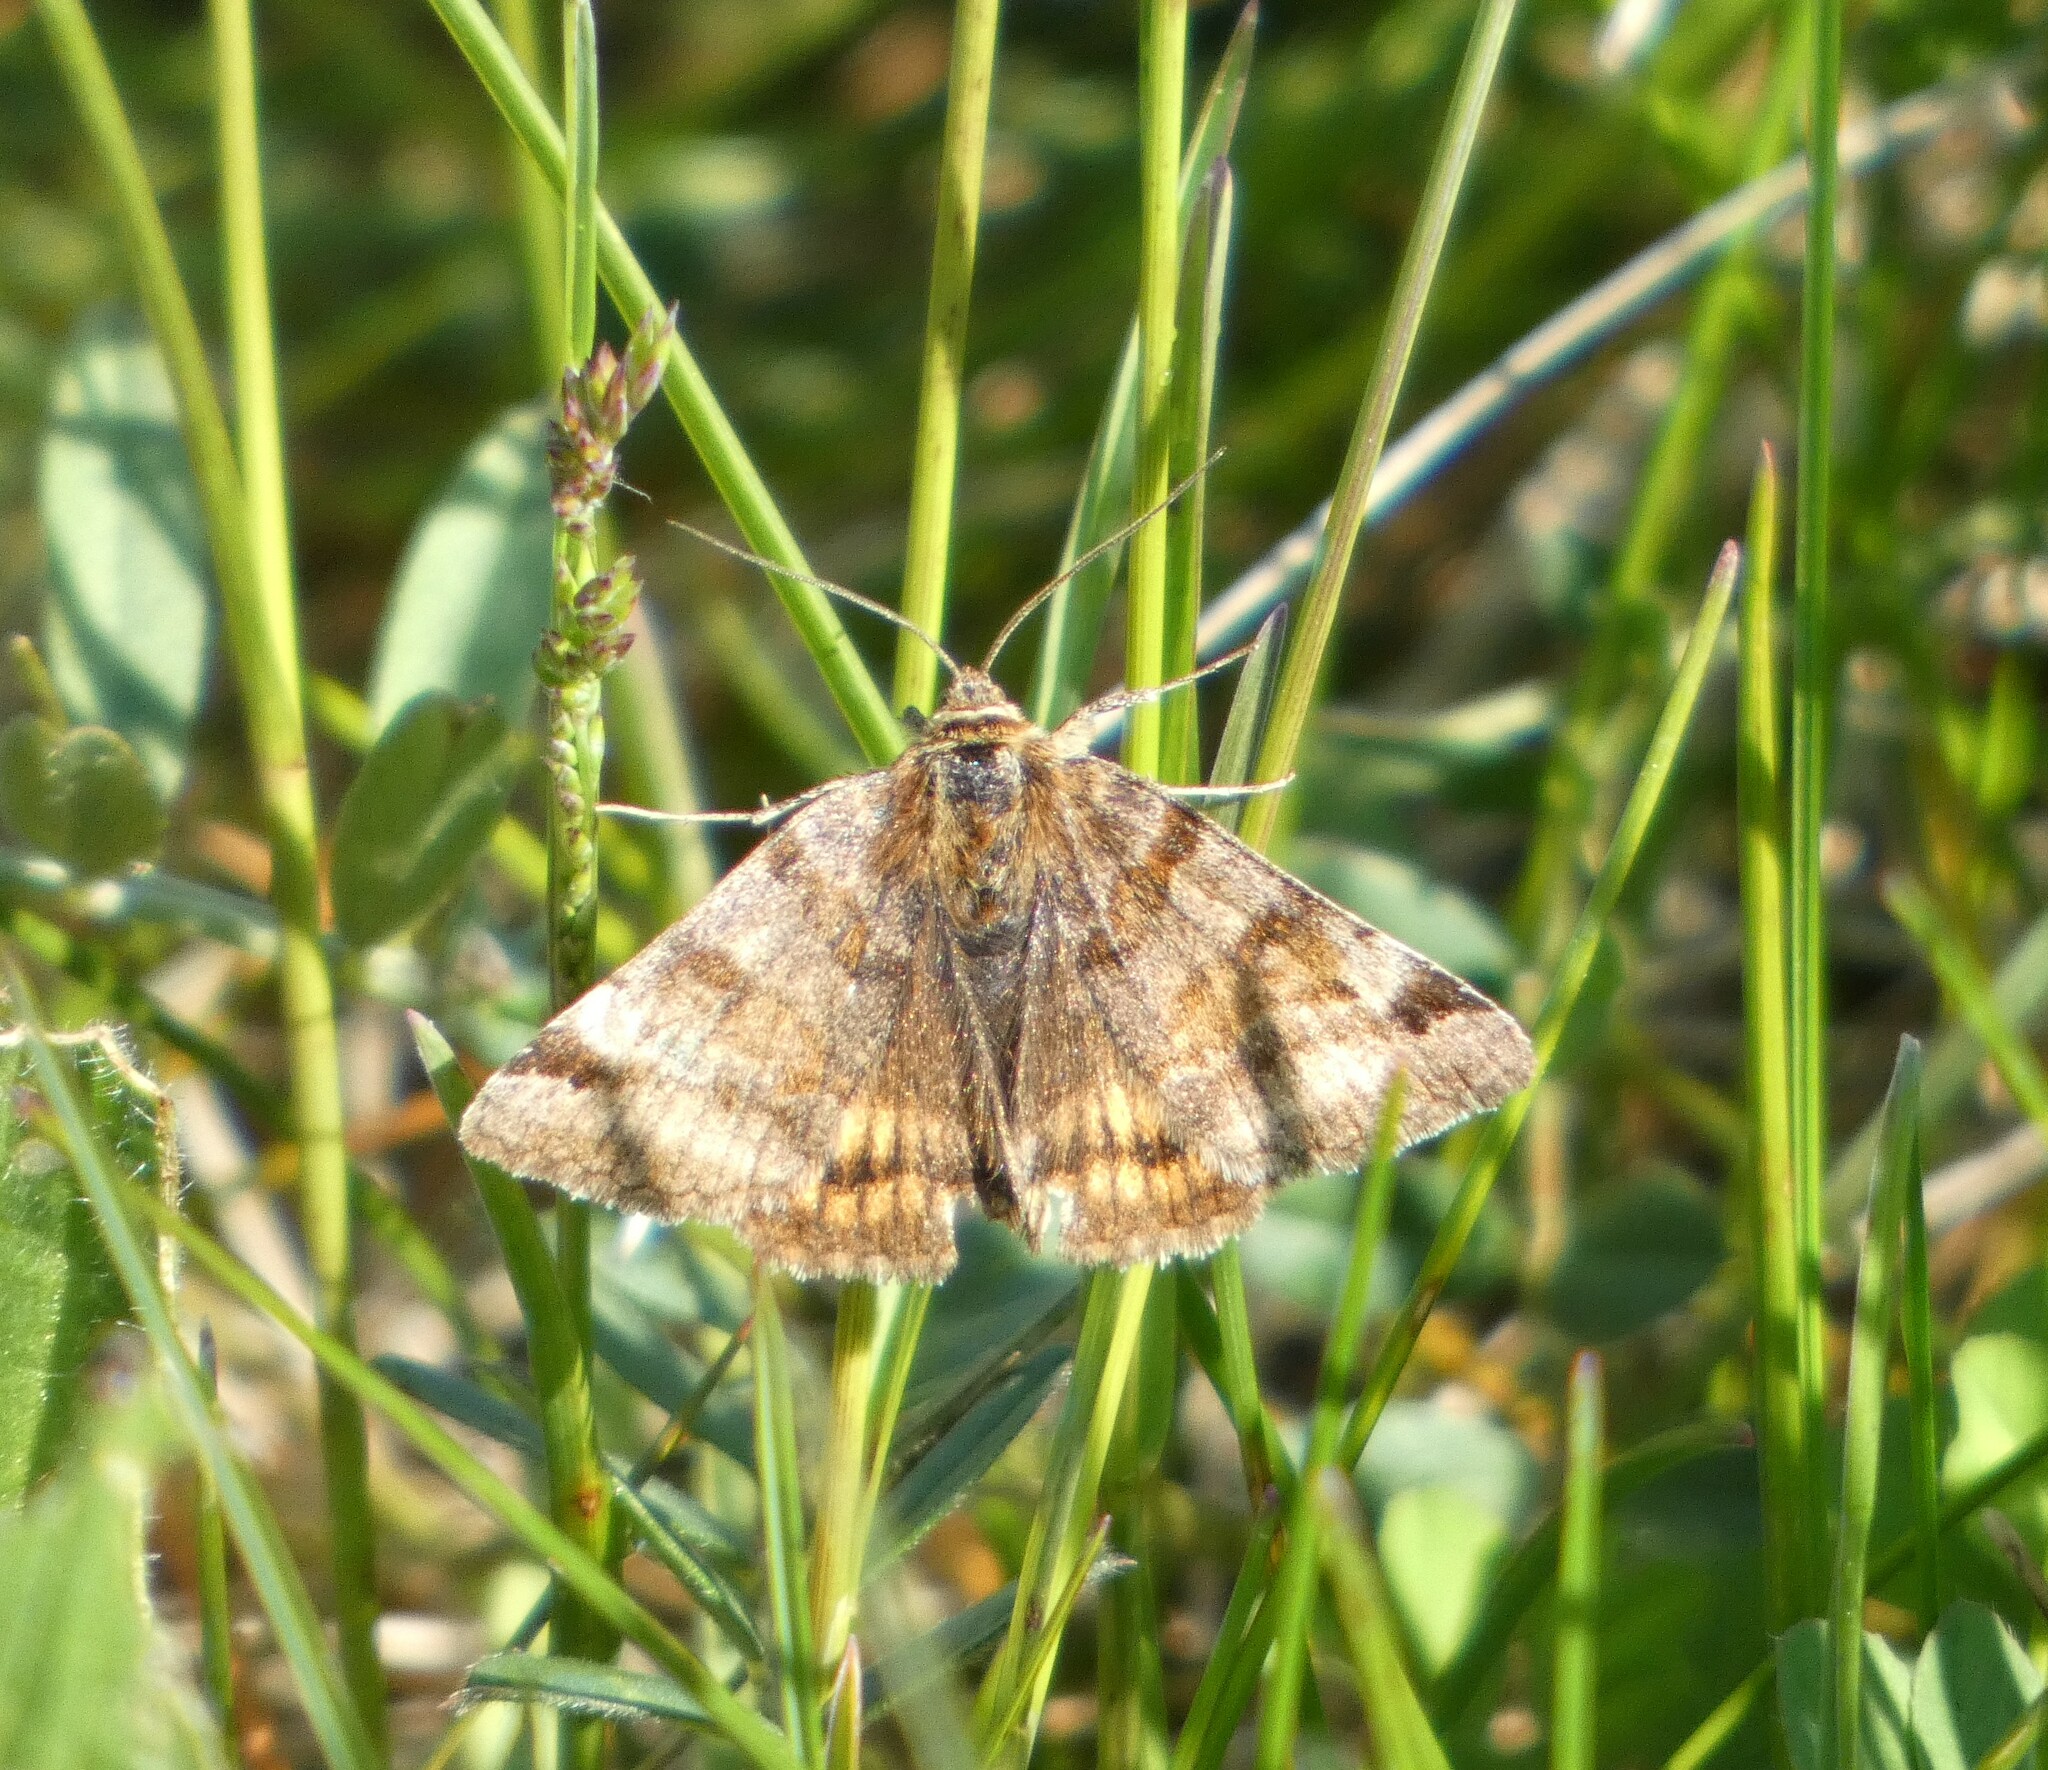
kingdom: Animalia
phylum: Arthropoda
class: Insecta
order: Lepidoptera
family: Erebidae
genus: Euclidia
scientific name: Euclidia glyphica
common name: Burnet companion
